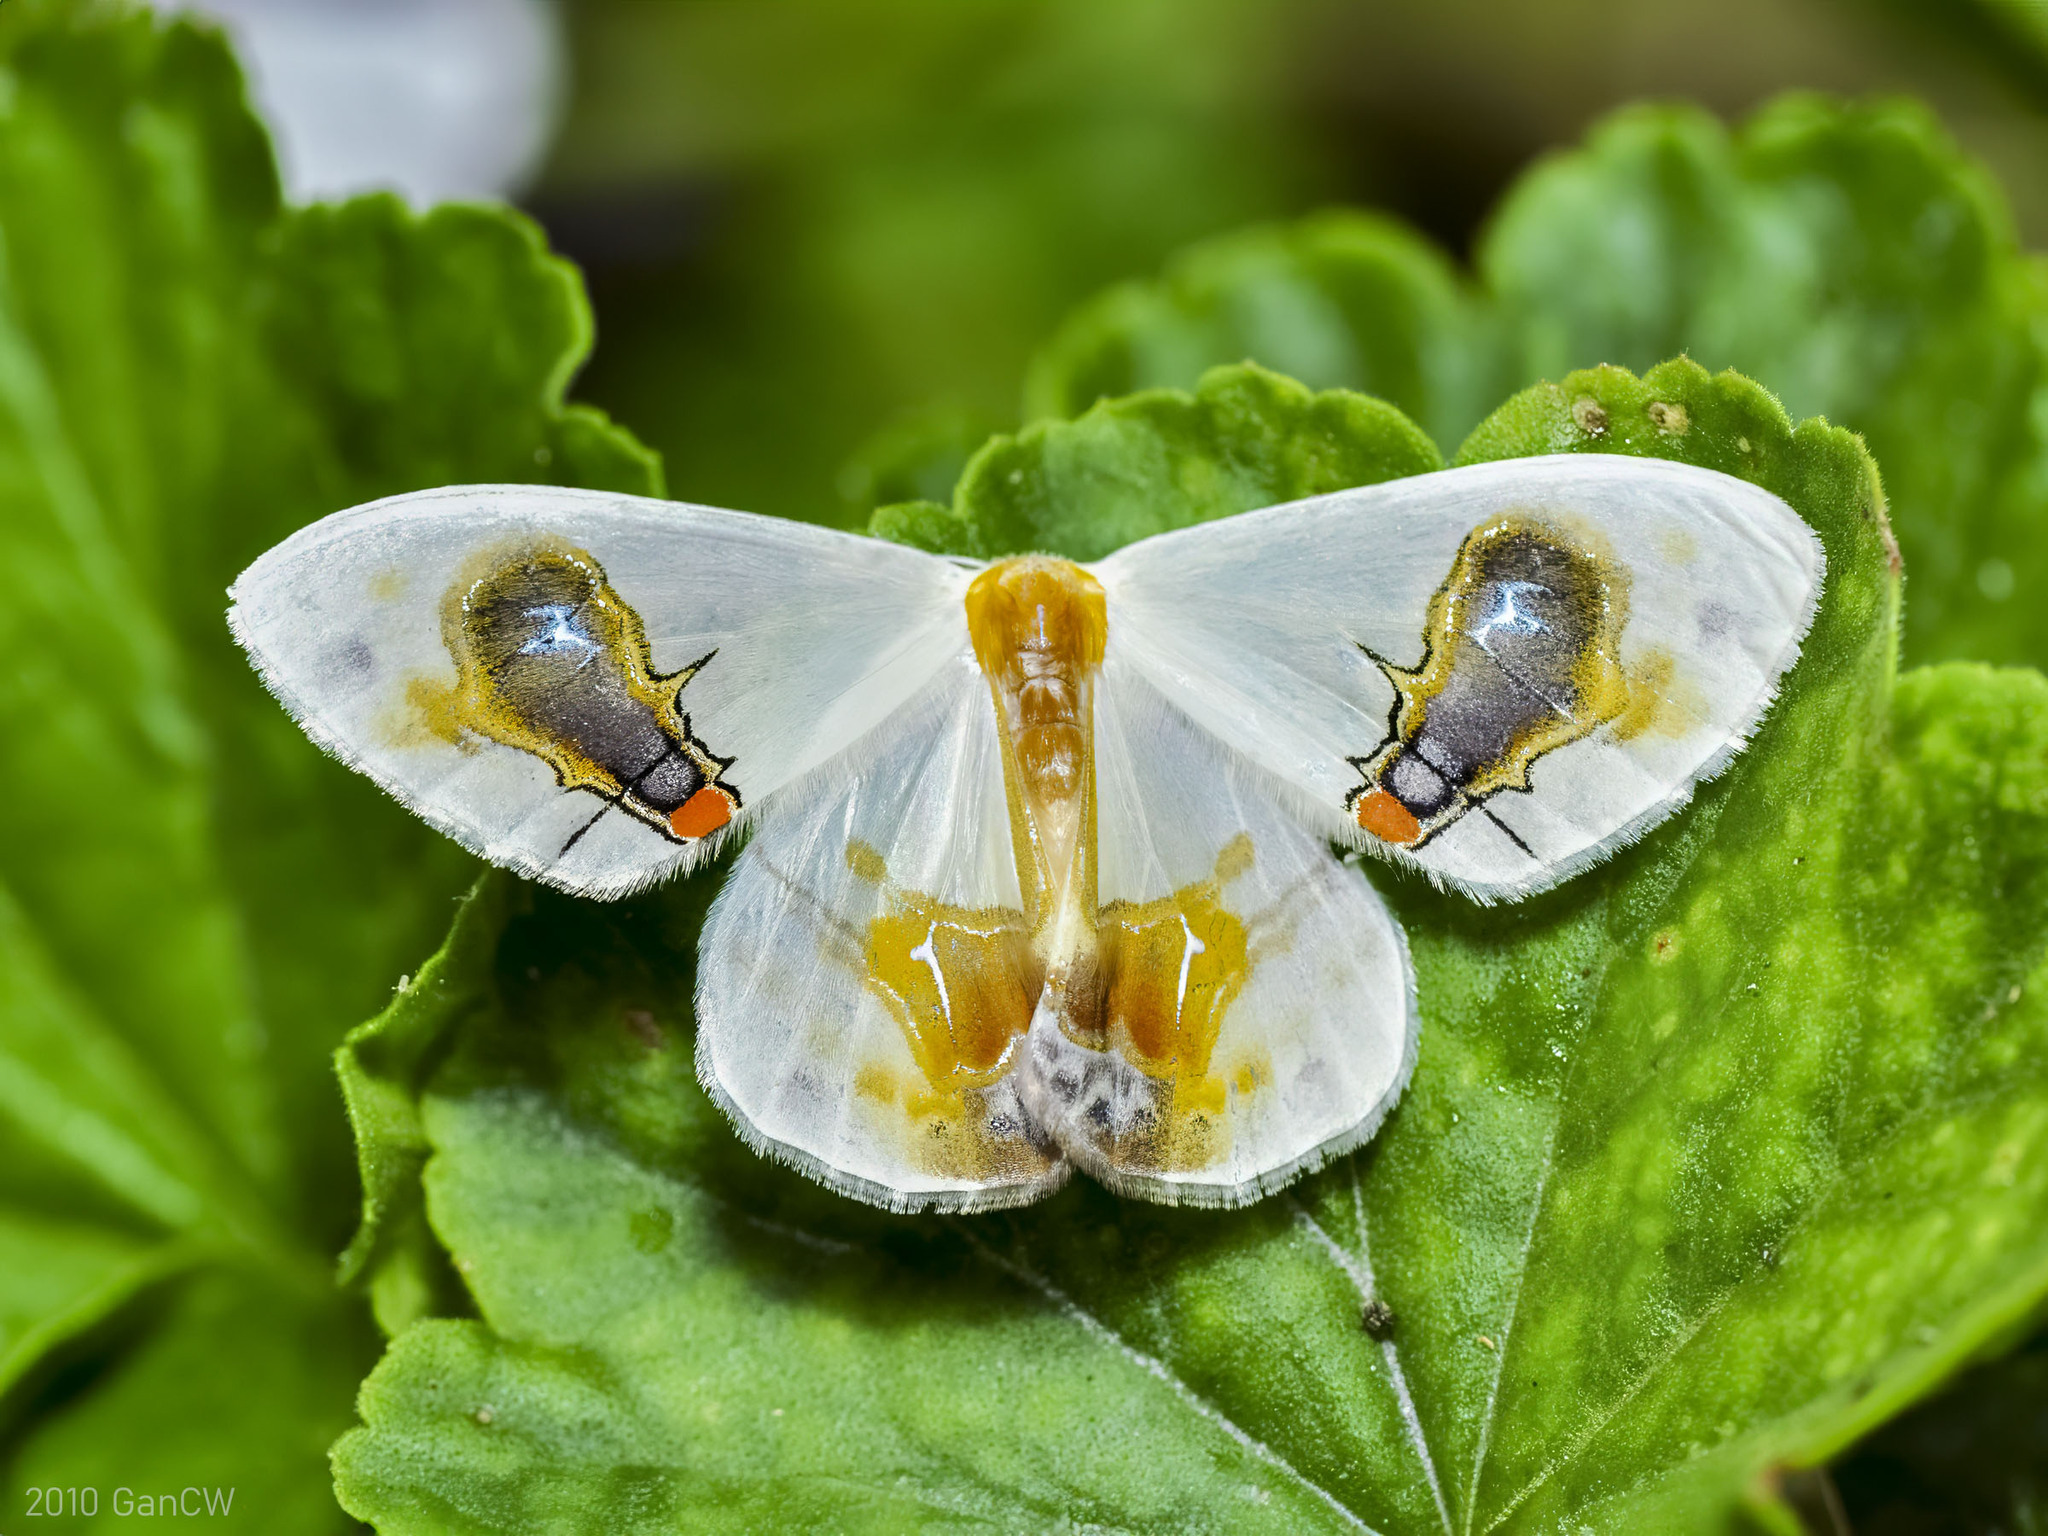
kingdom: Animalia
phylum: Arthropoda
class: Insecta
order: Lepidoptera
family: Drepanidae
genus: Macrocilix
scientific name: Macrocilix maia
